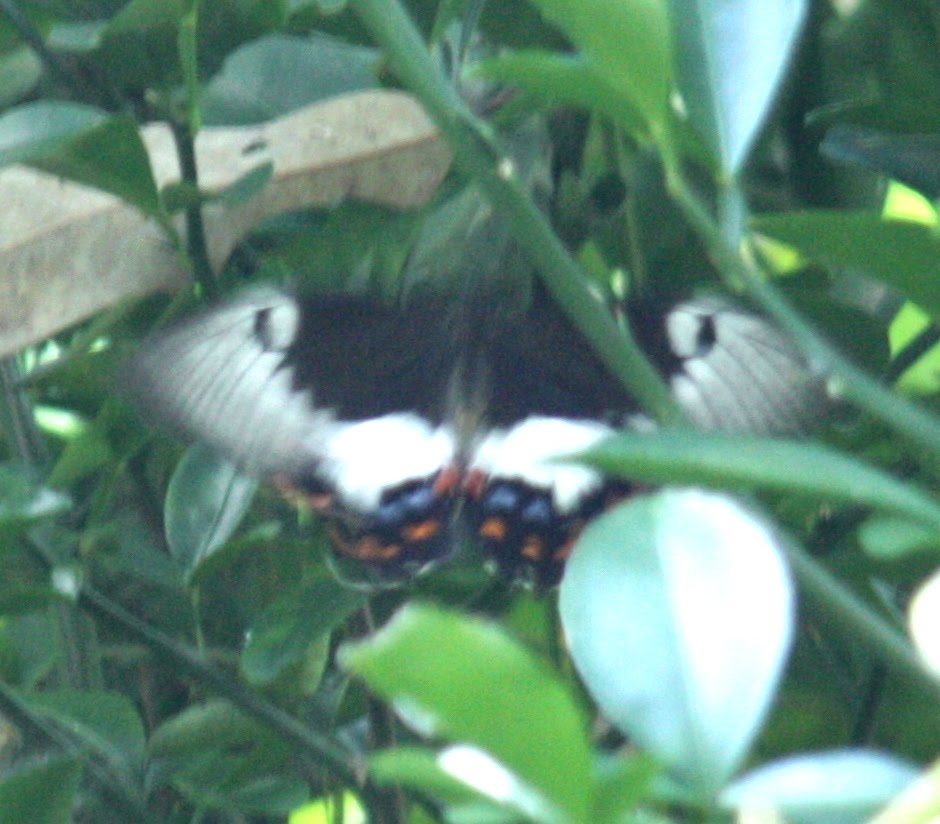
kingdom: Animalia
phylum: Arthropoda
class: Insecta
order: Lepidoptera
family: Papilionidae
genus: Papilio
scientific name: Papilio aegeus
